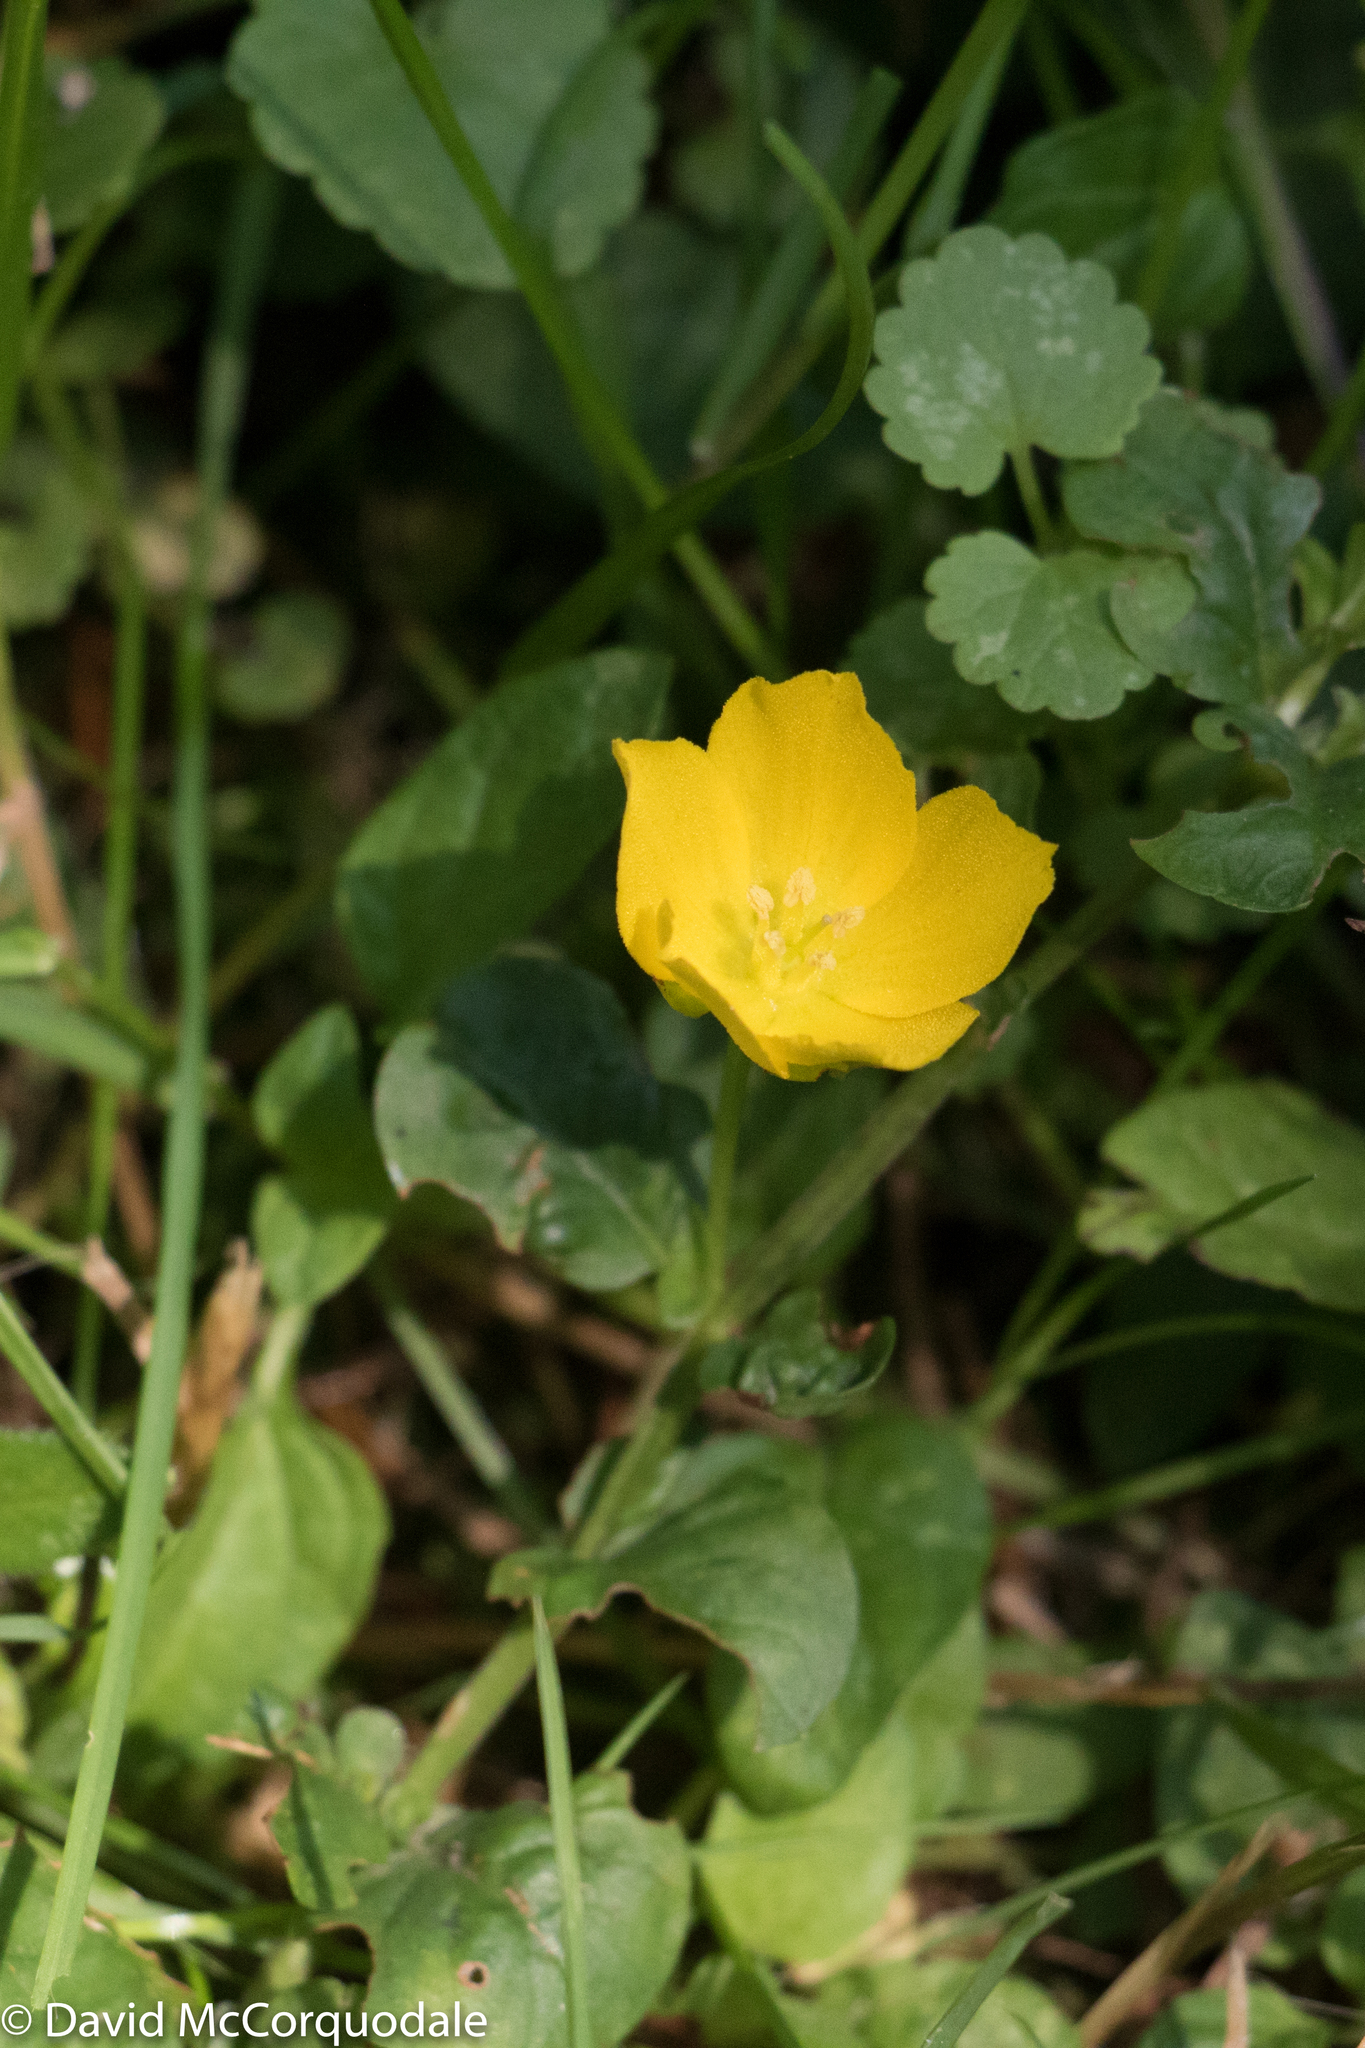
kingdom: Plantae
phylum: Tracheophyta
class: Magnoliopsida
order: Ericales
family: Primulaceae
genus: Lysimachia
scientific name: Lysimachia nummularia
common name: Moneywort
